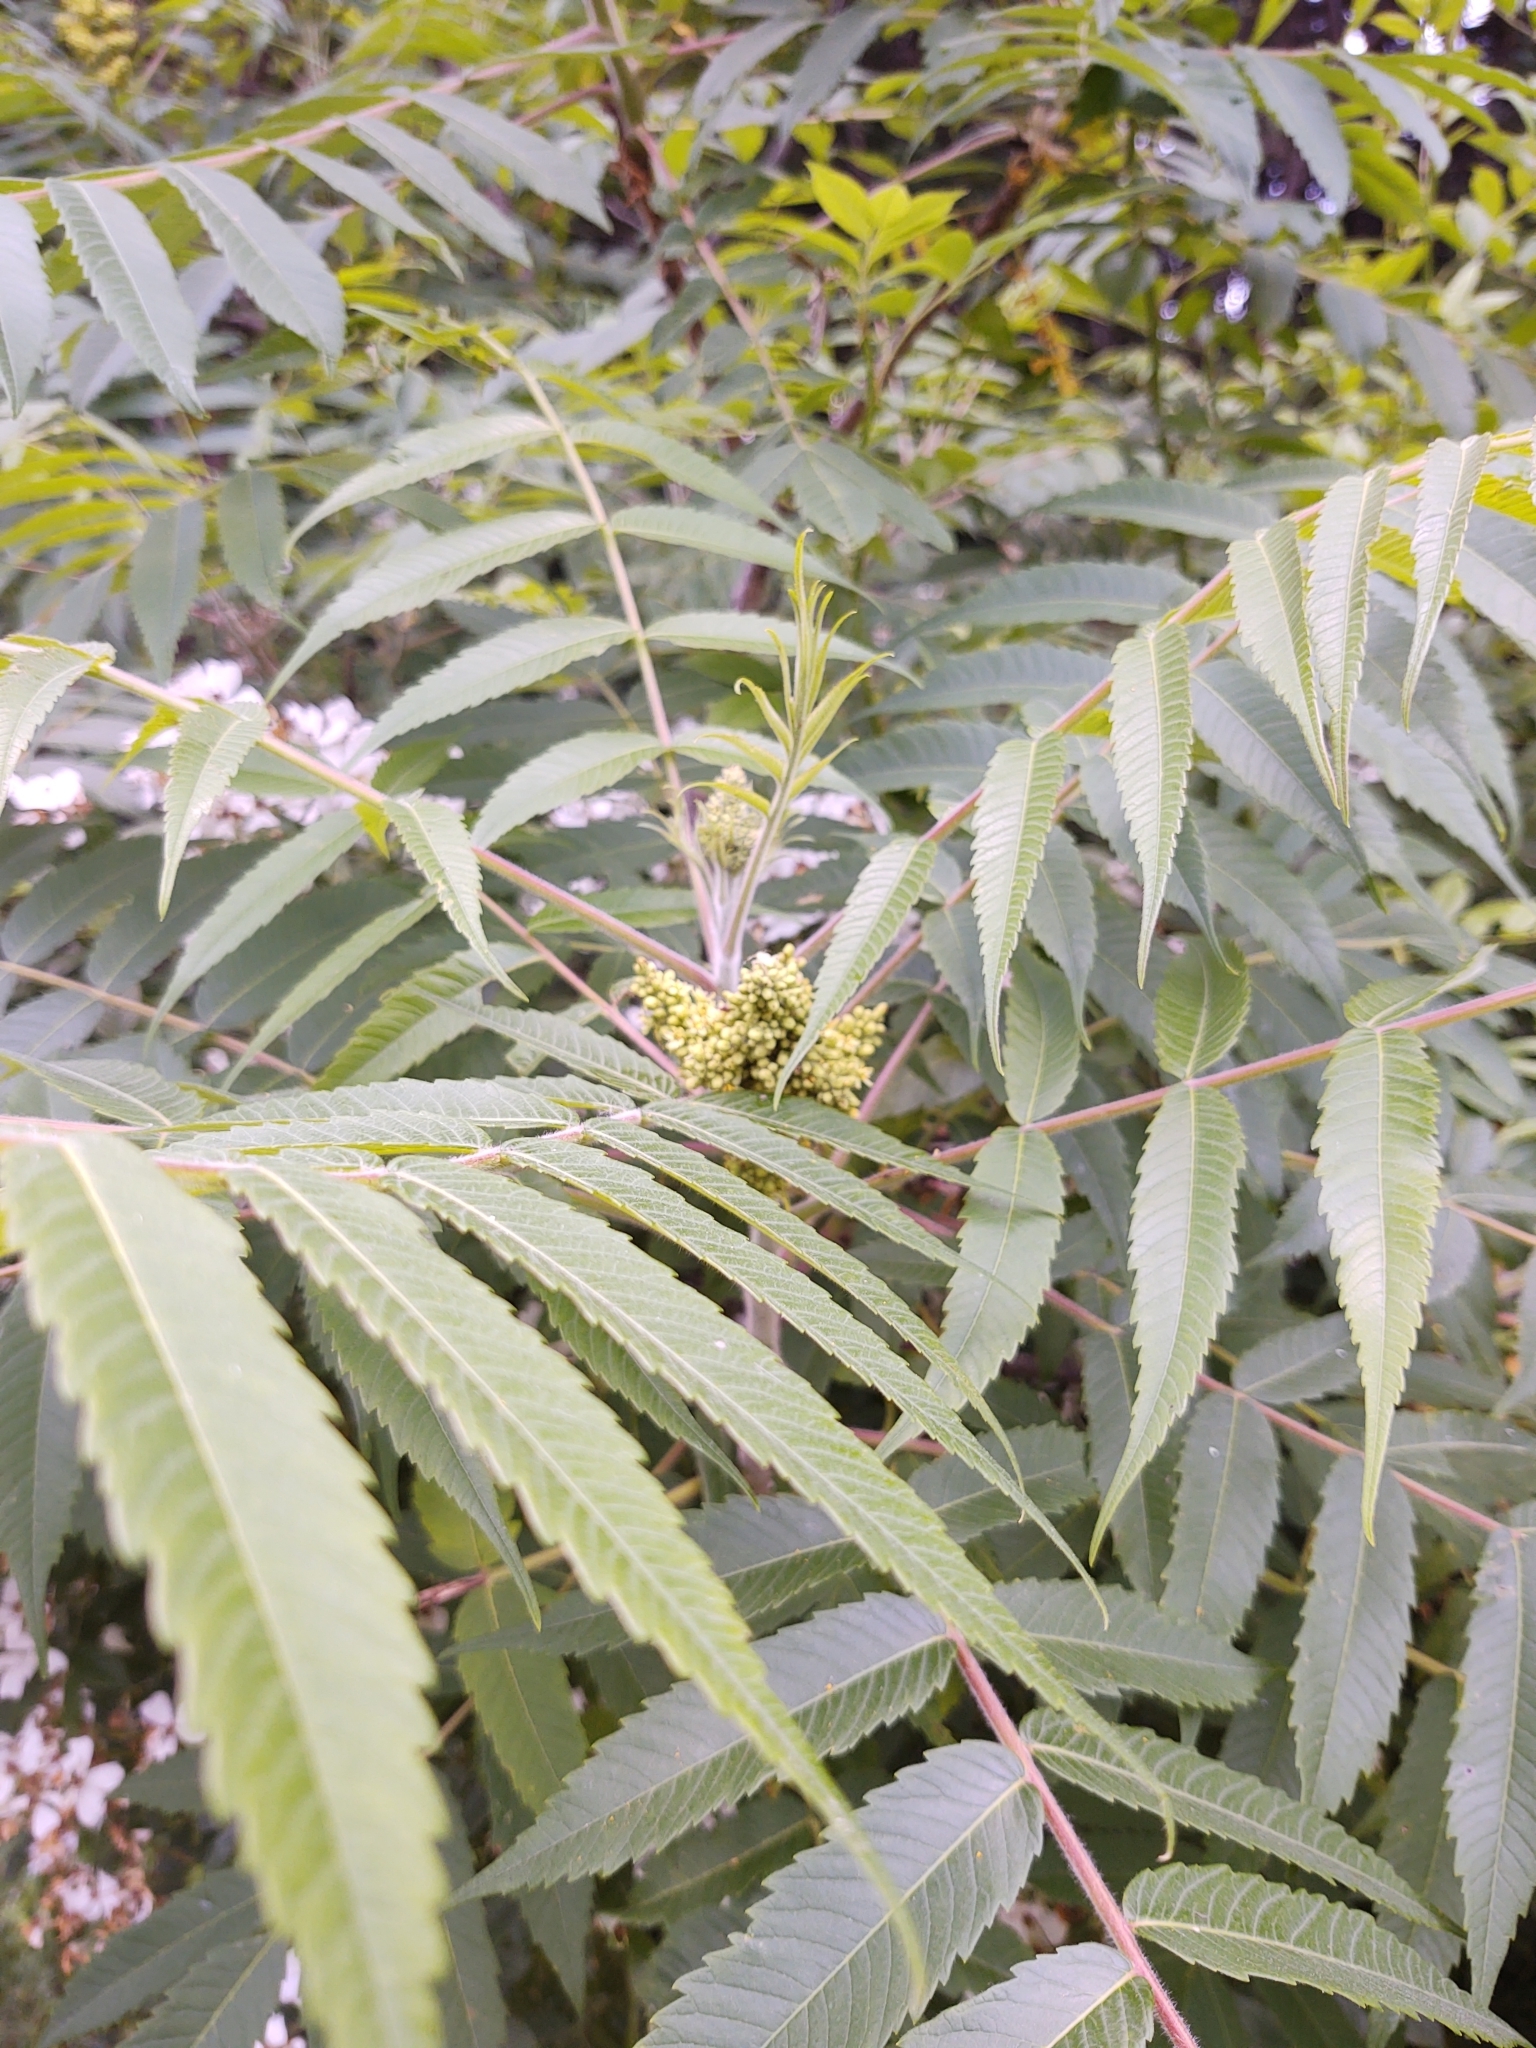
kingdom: Plantae
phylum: Tracheophyta
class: Magnoliopsida
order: Sapindales
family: Anacardiaceae
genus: Rhus
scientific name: Rhus typhina
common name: Staghorn sumac
